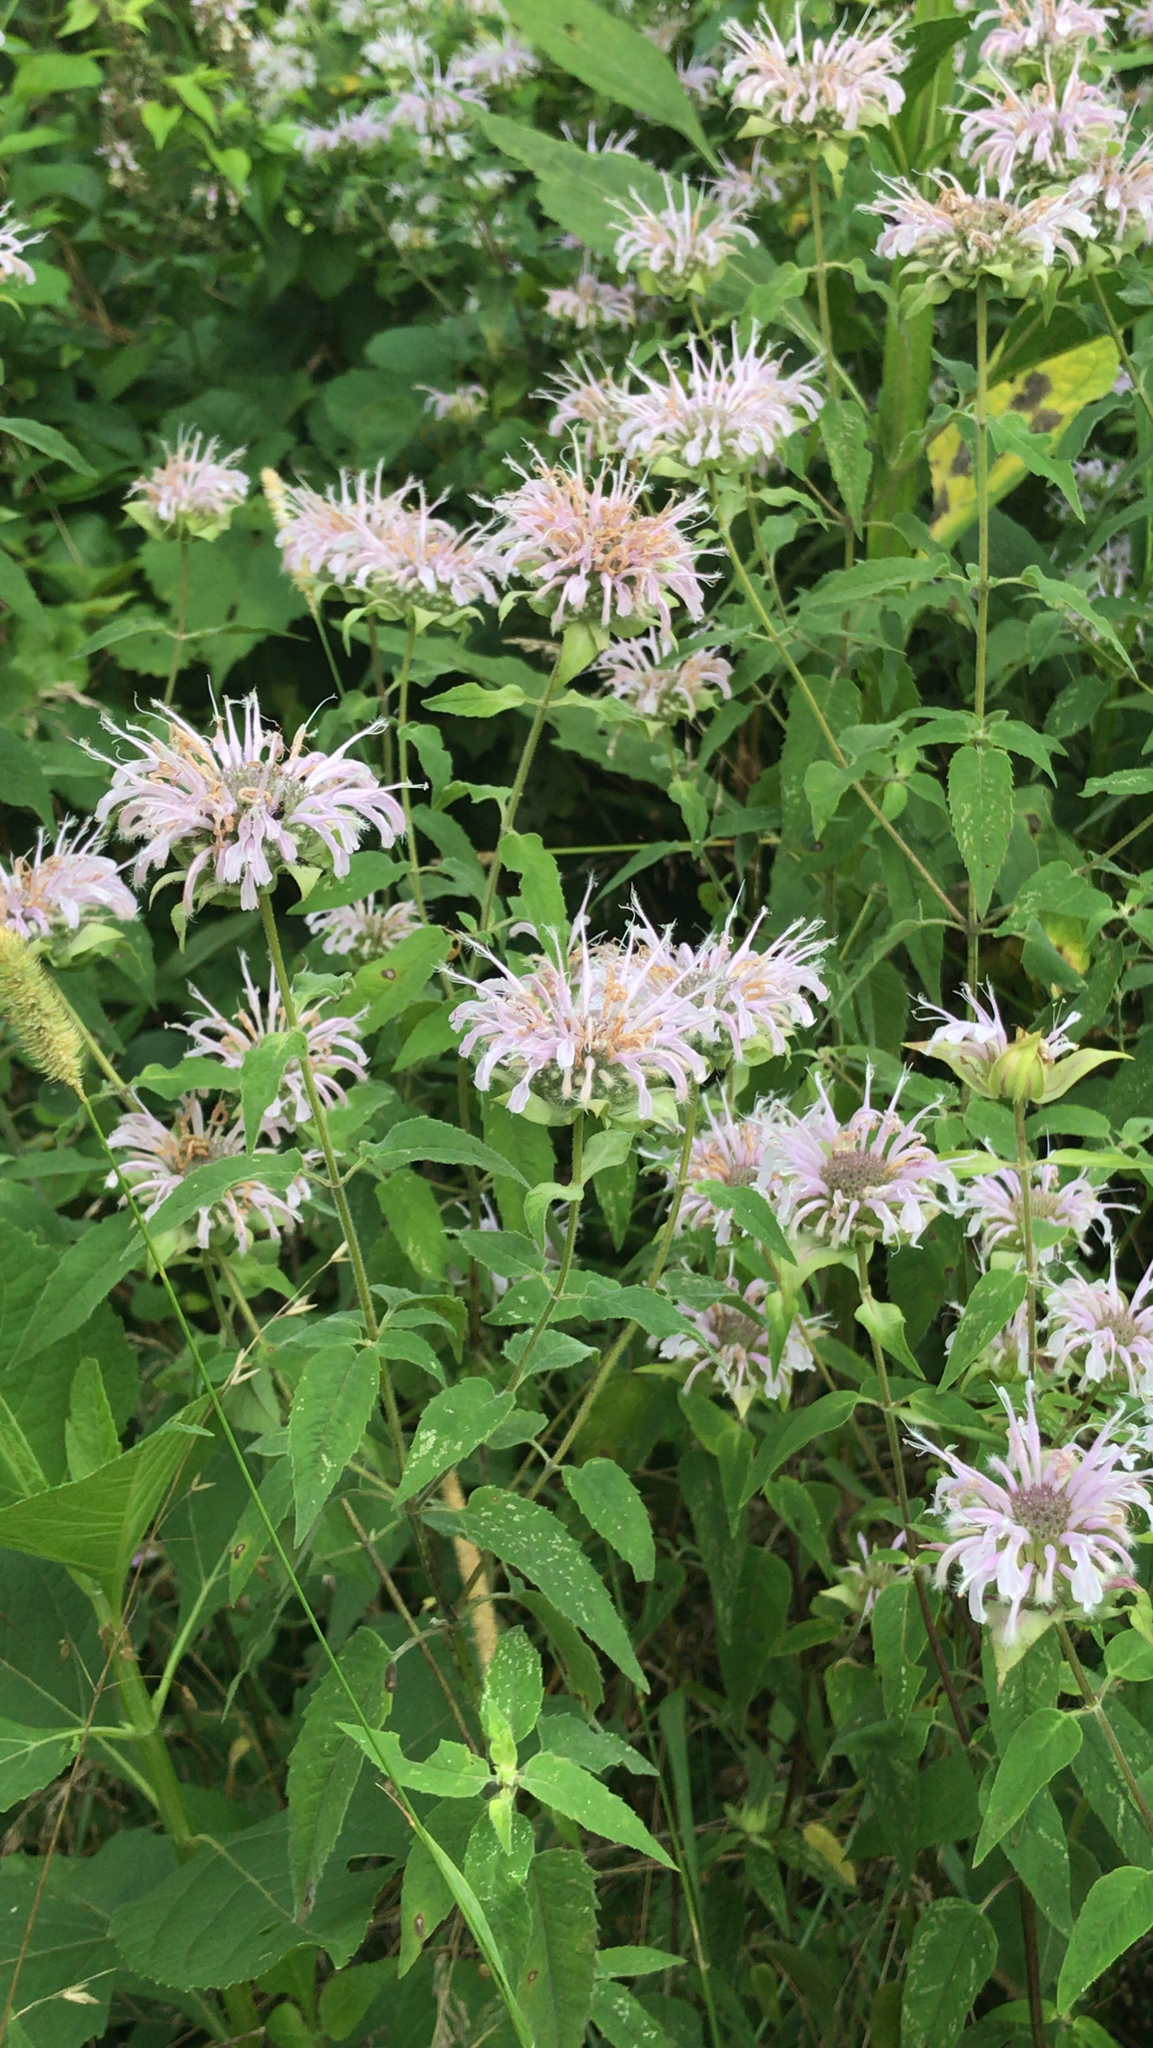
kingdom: Plantae
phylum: Tracheophyta
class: Magnoliopsida
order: Lamiales
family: Lamiaceae
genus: Monarda
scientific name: Monarda fistulosa
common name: Purple beebalm
